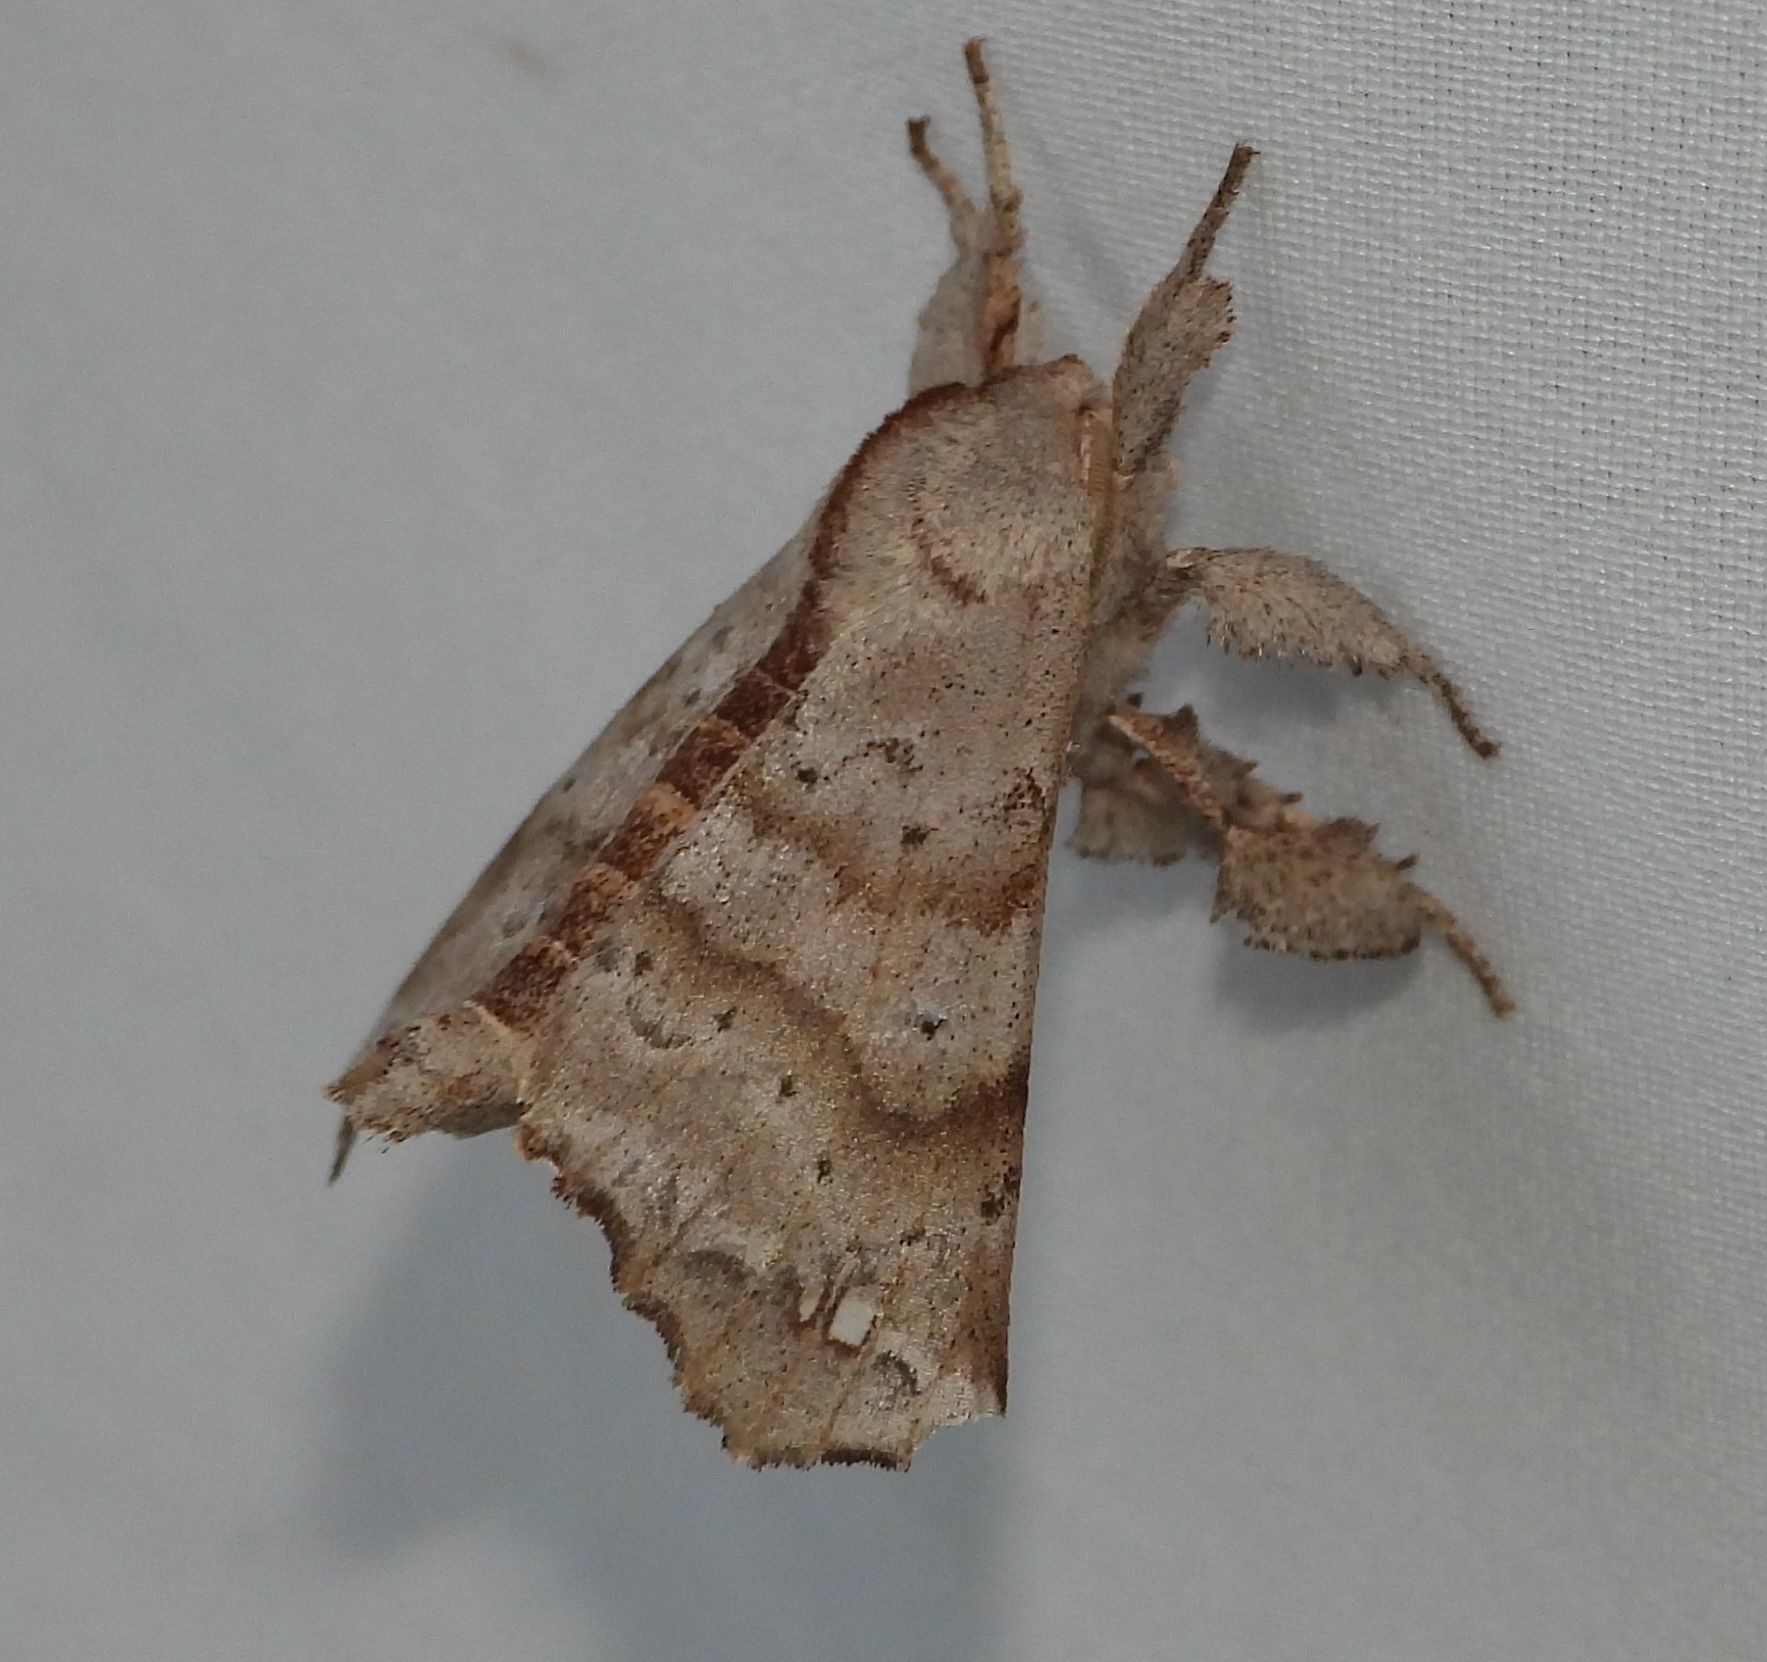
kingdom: Animalia
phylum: Arthropoda
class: Insecta
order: Lepidoptera
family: Apatelodidae
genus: Olceclostera
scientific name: Olceclostera angelica
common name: Angel moth
